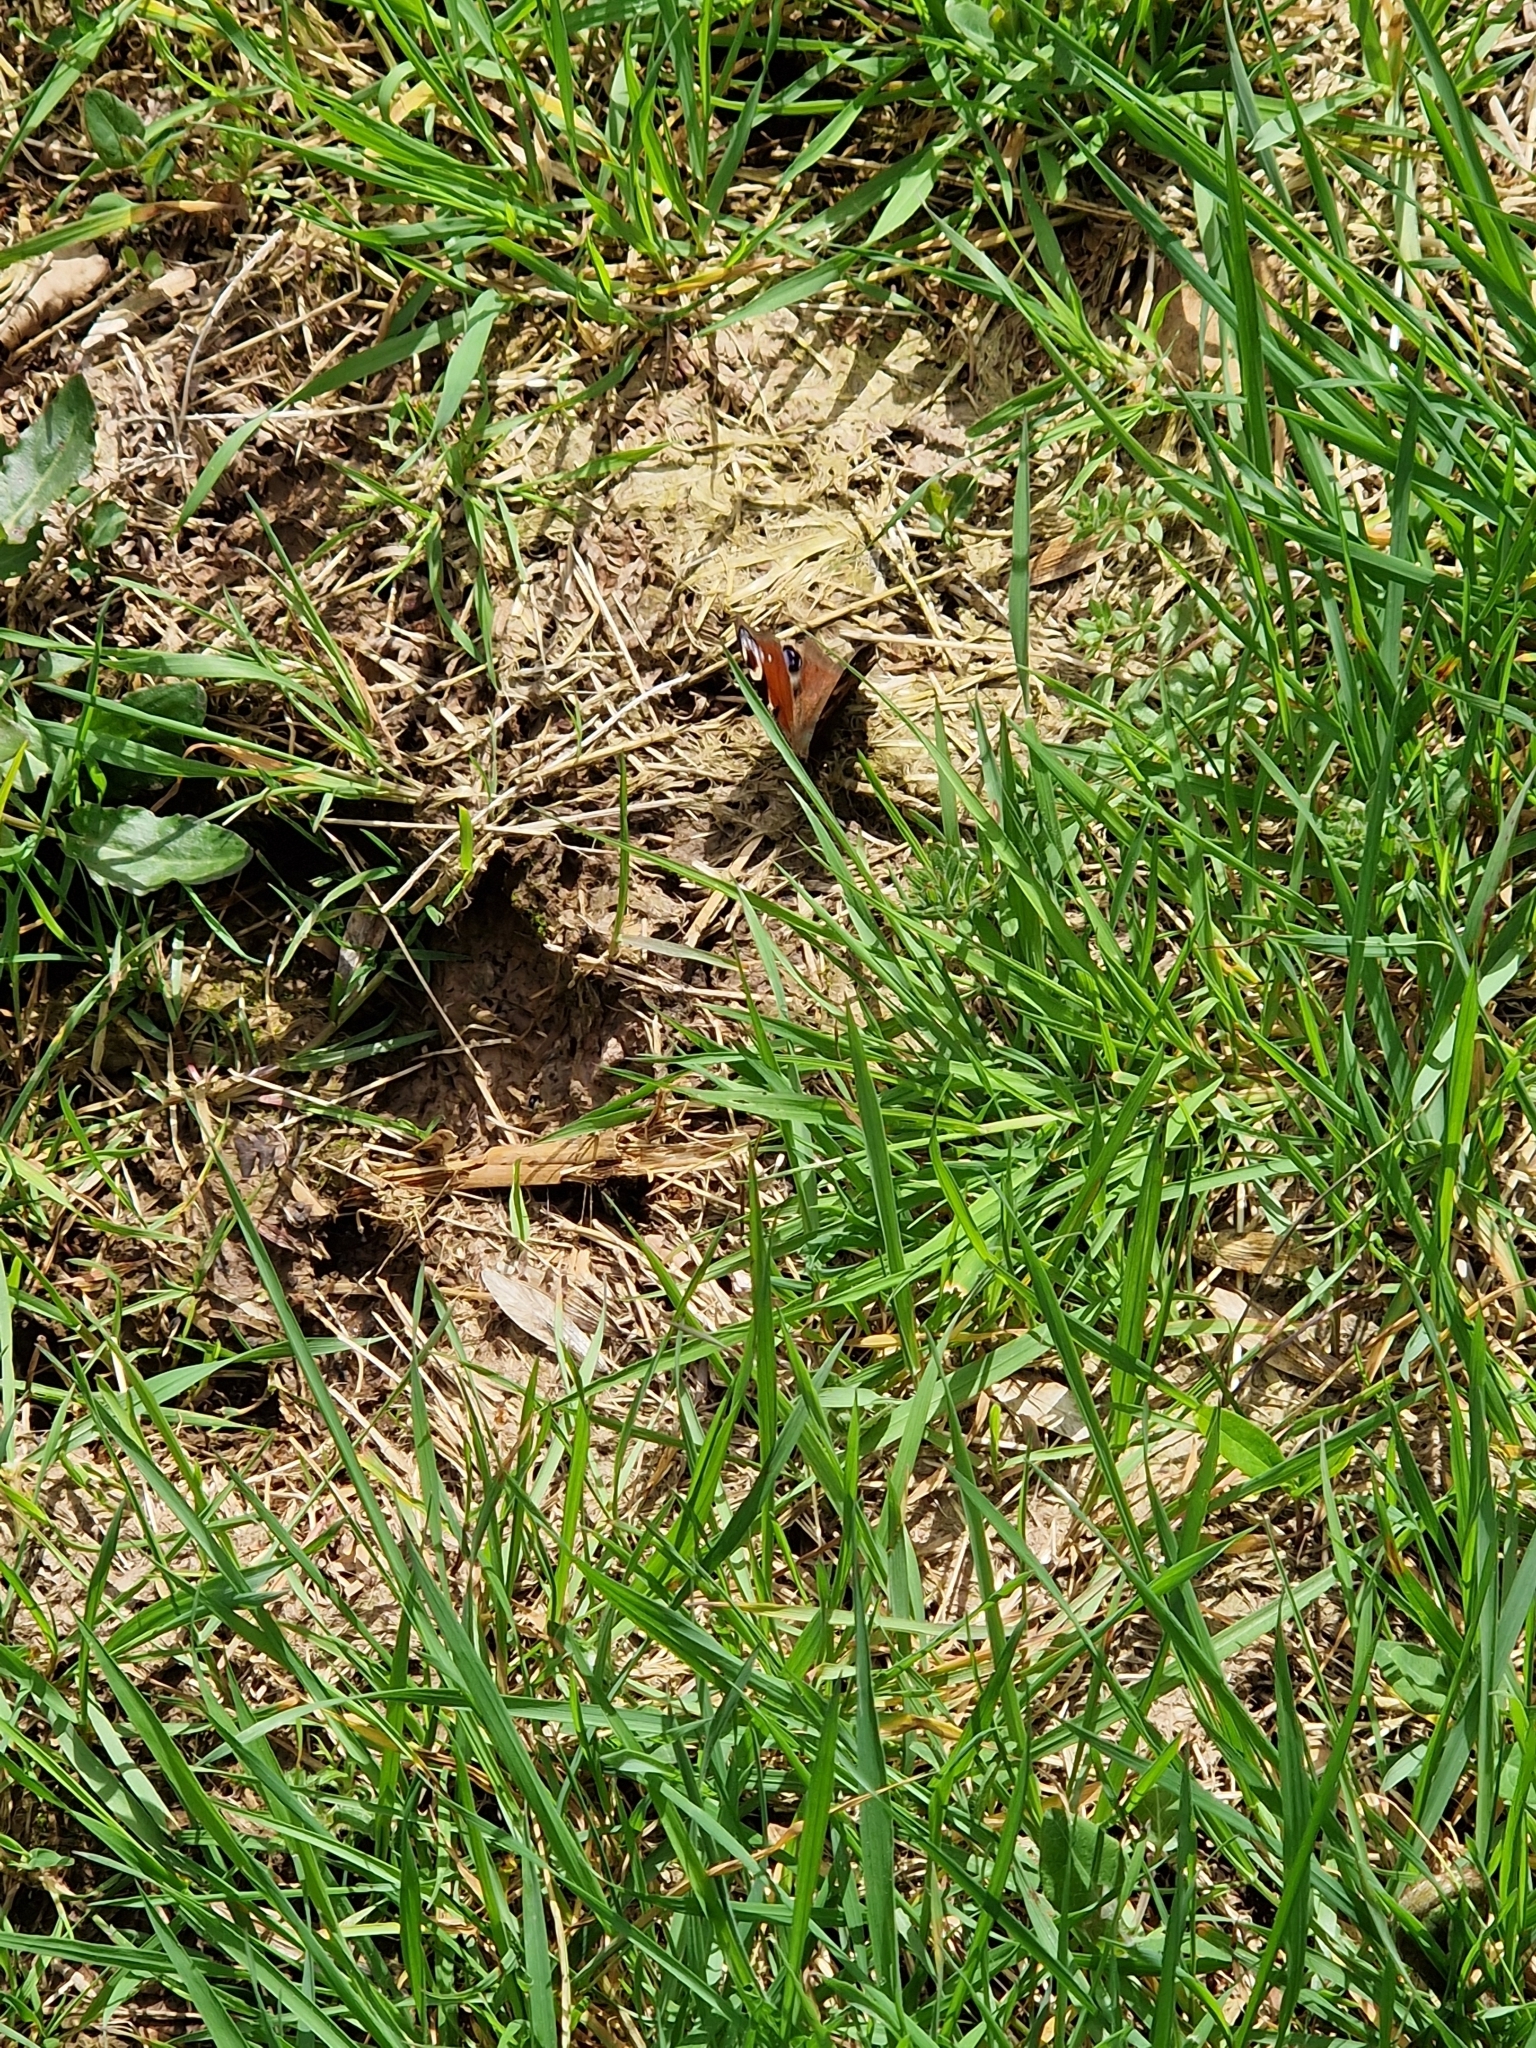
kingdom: Animalia
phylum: Arthropoda
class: Insecta
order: Lepidoptera
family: Nymphalidae
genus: Aglais
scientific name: Aglais io
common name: Peacock
